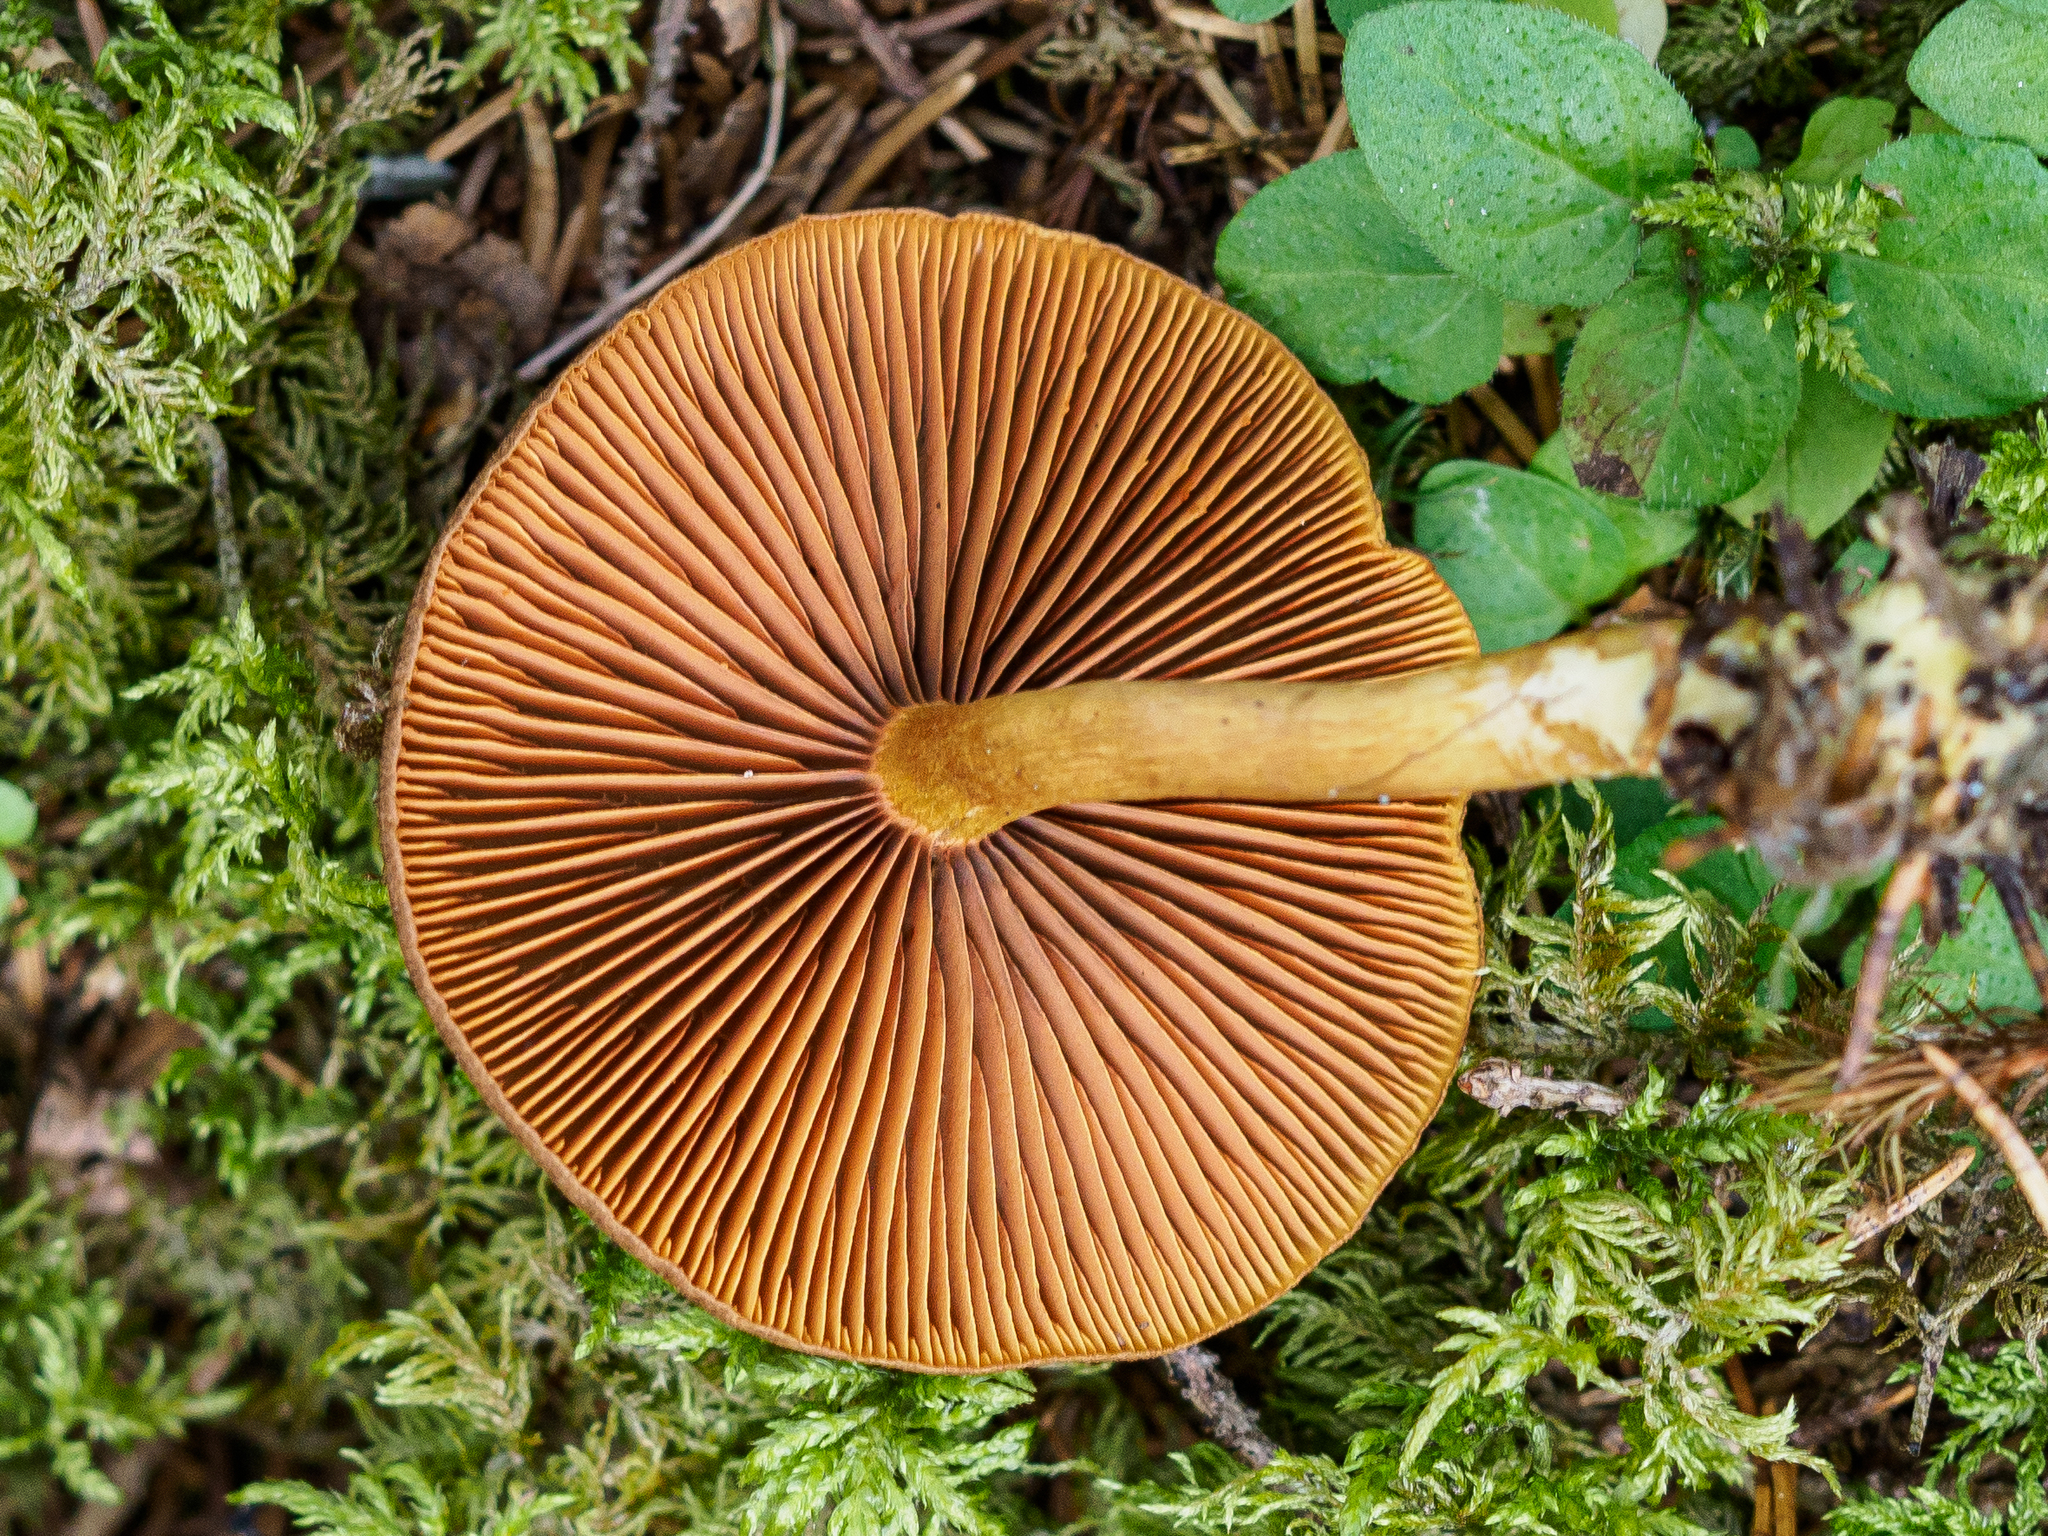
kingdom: Fungi
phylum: Basidiomycota
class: Agaricomycetes
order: Agaricales
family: Cortinariaceae
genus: Cortinarius
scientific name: Cortinarius croceus
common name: Saffron webcap
